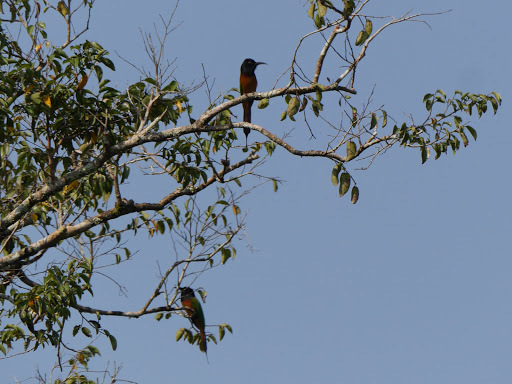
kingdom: Animalia
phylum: Chordata
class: Aves
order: Coraciiformes
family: Meropidae
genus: Merops
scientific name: Merops breweri
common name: Black-headed bee-eater
